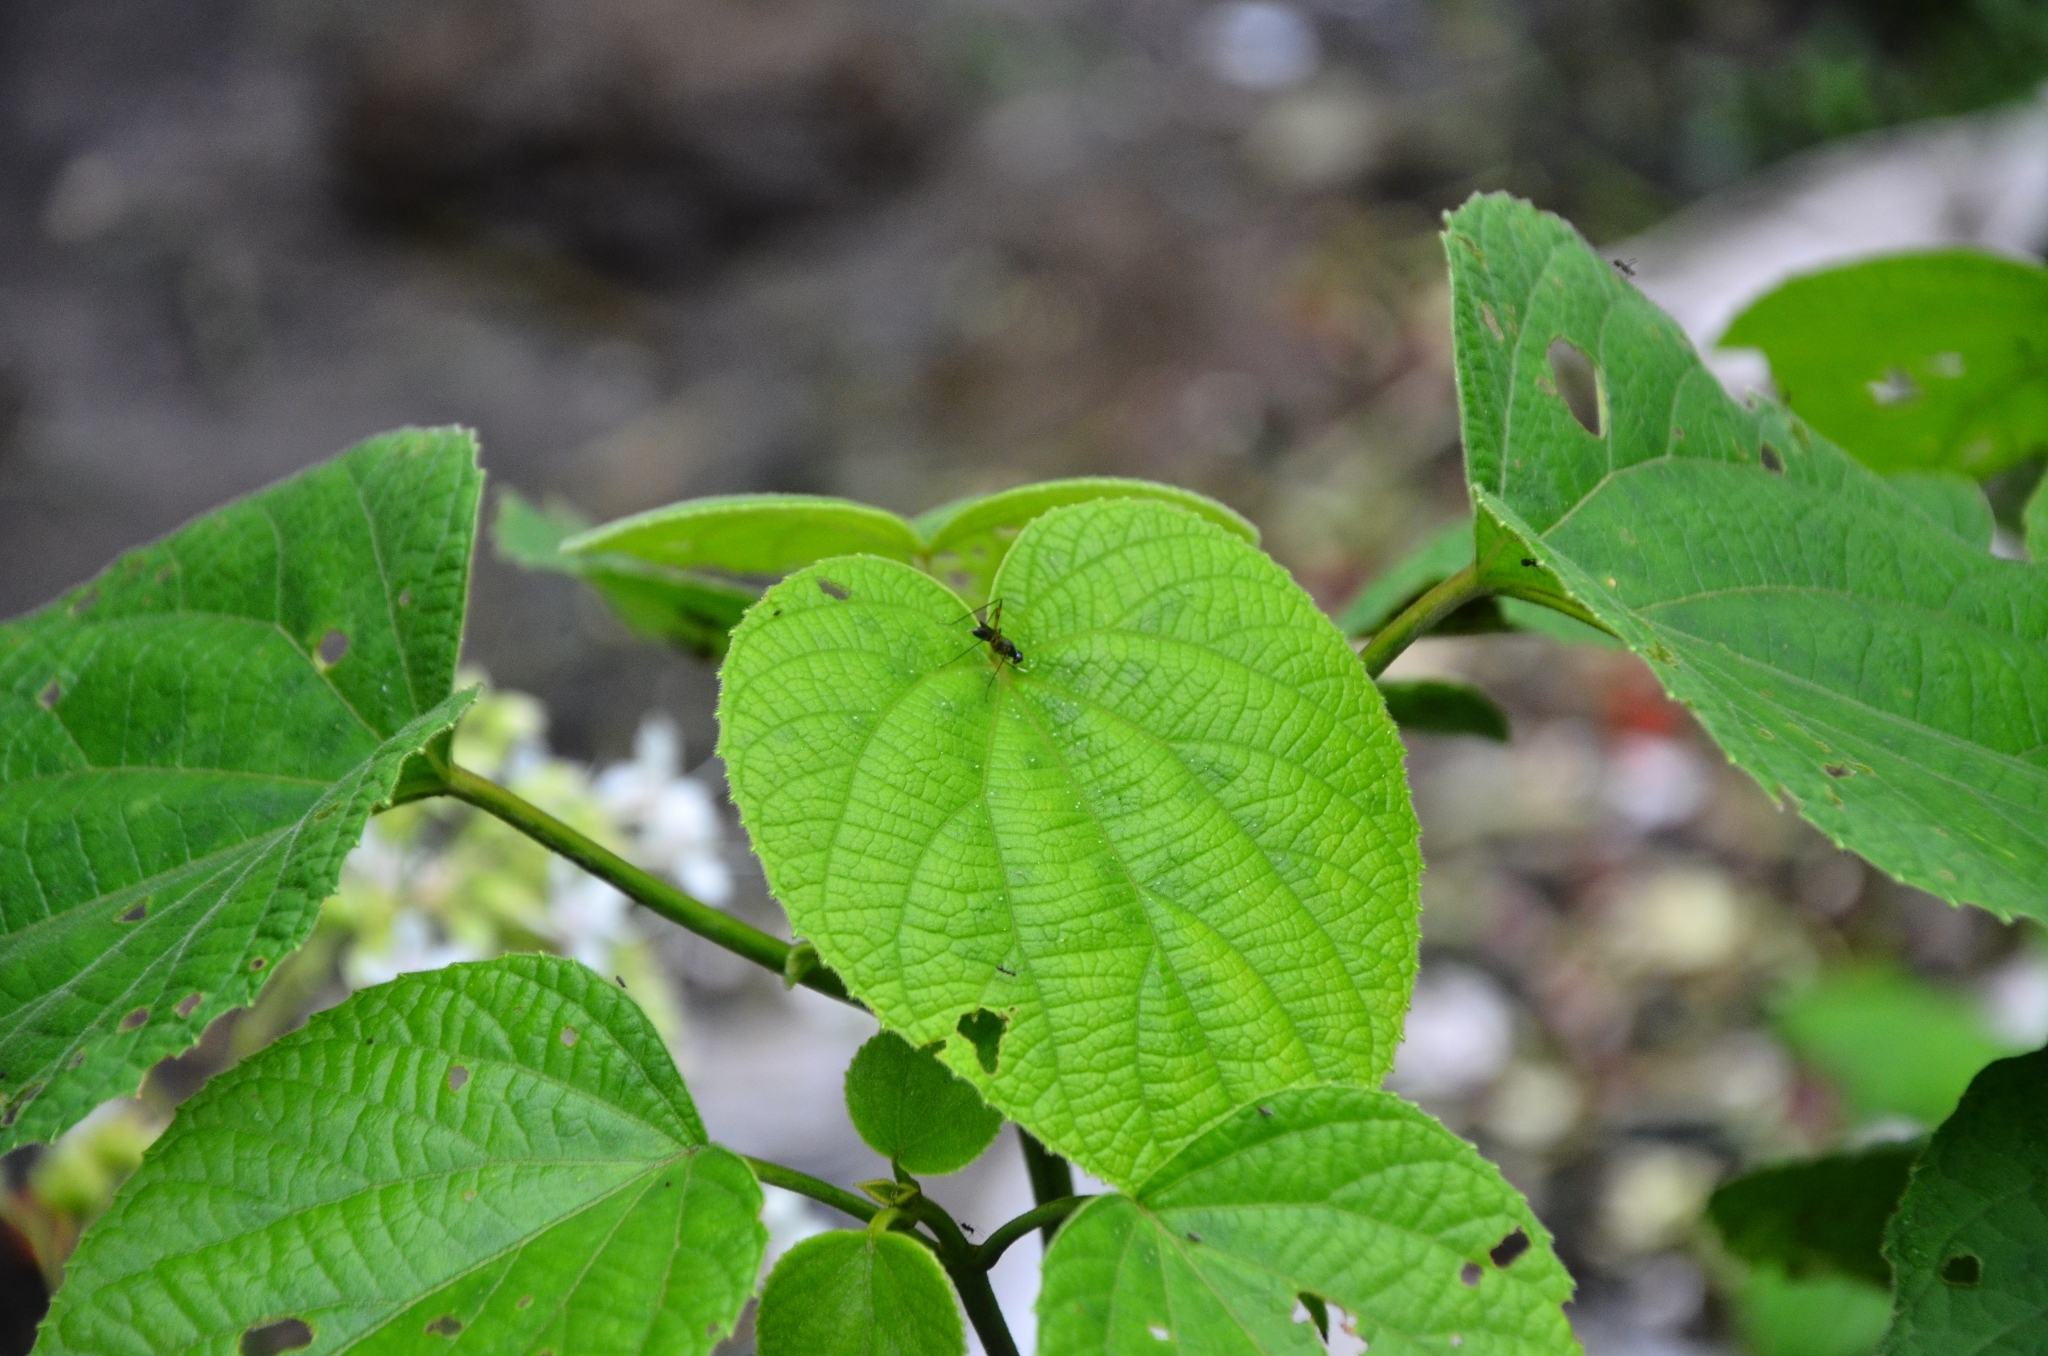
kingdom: Plantae
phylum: Tracheophyta
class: Magnoliopsida
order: Lamiales
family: Lamiaceae
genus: Clerodendrum
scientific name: Clerodendrum infortunatum
